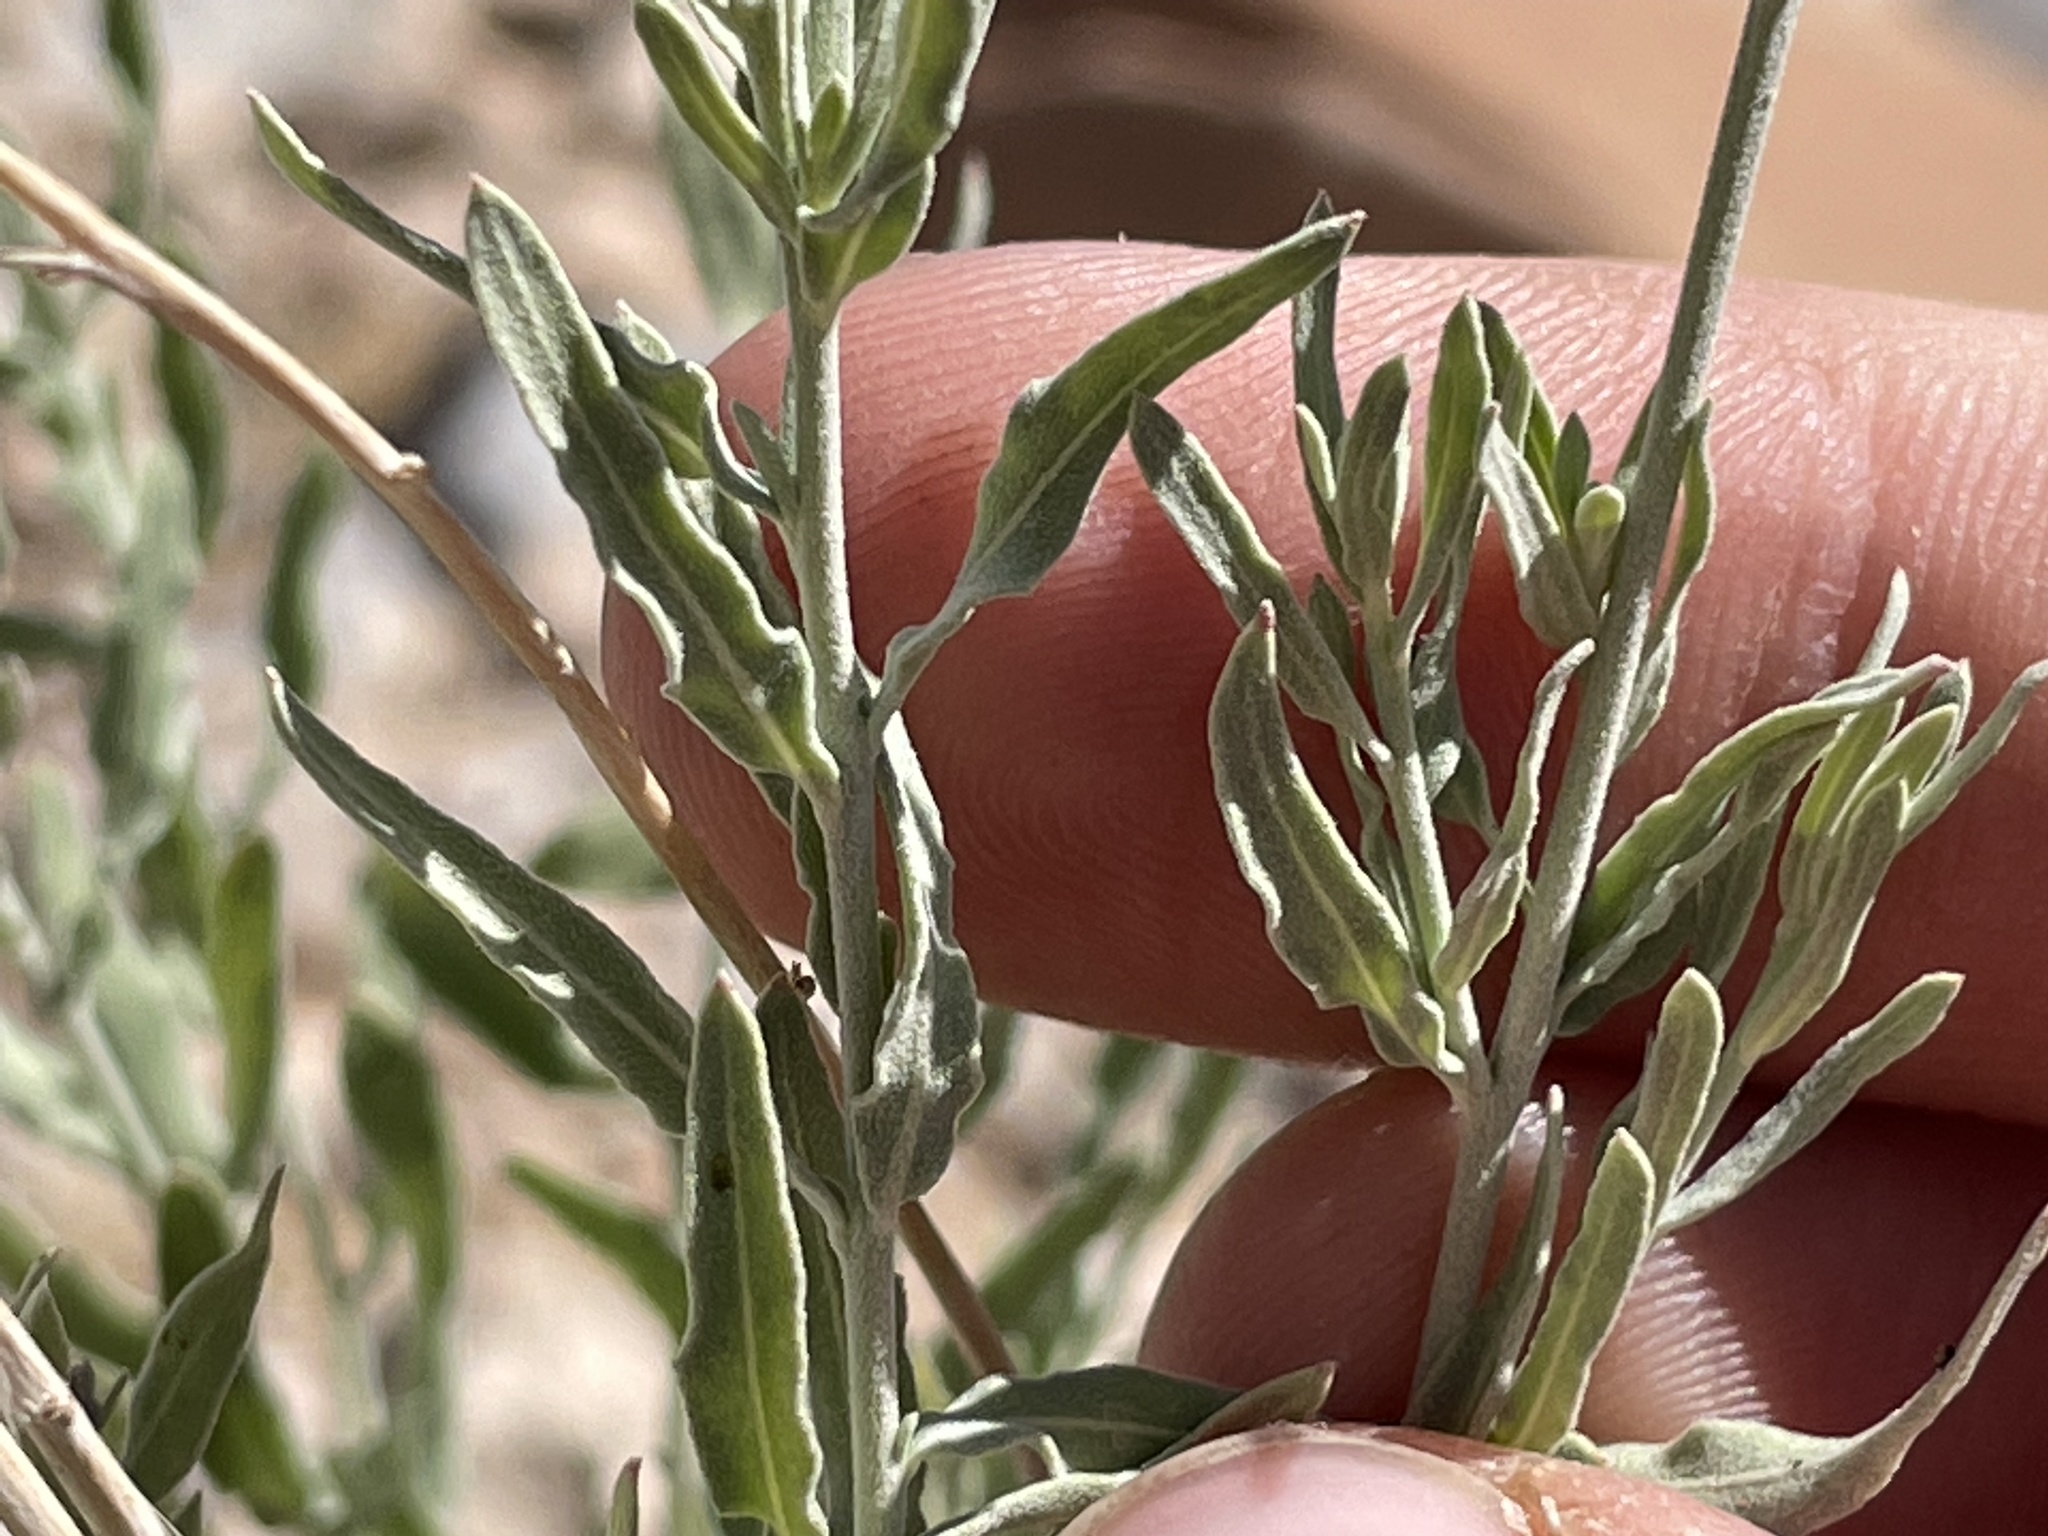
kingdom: Plantae
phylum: Tracheophyta
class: Magnoliopsida
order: Myrtales
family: Onagraceae
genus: Oenothera
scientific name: Oenothera suffrutescens
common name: Scarlet beeblossom
